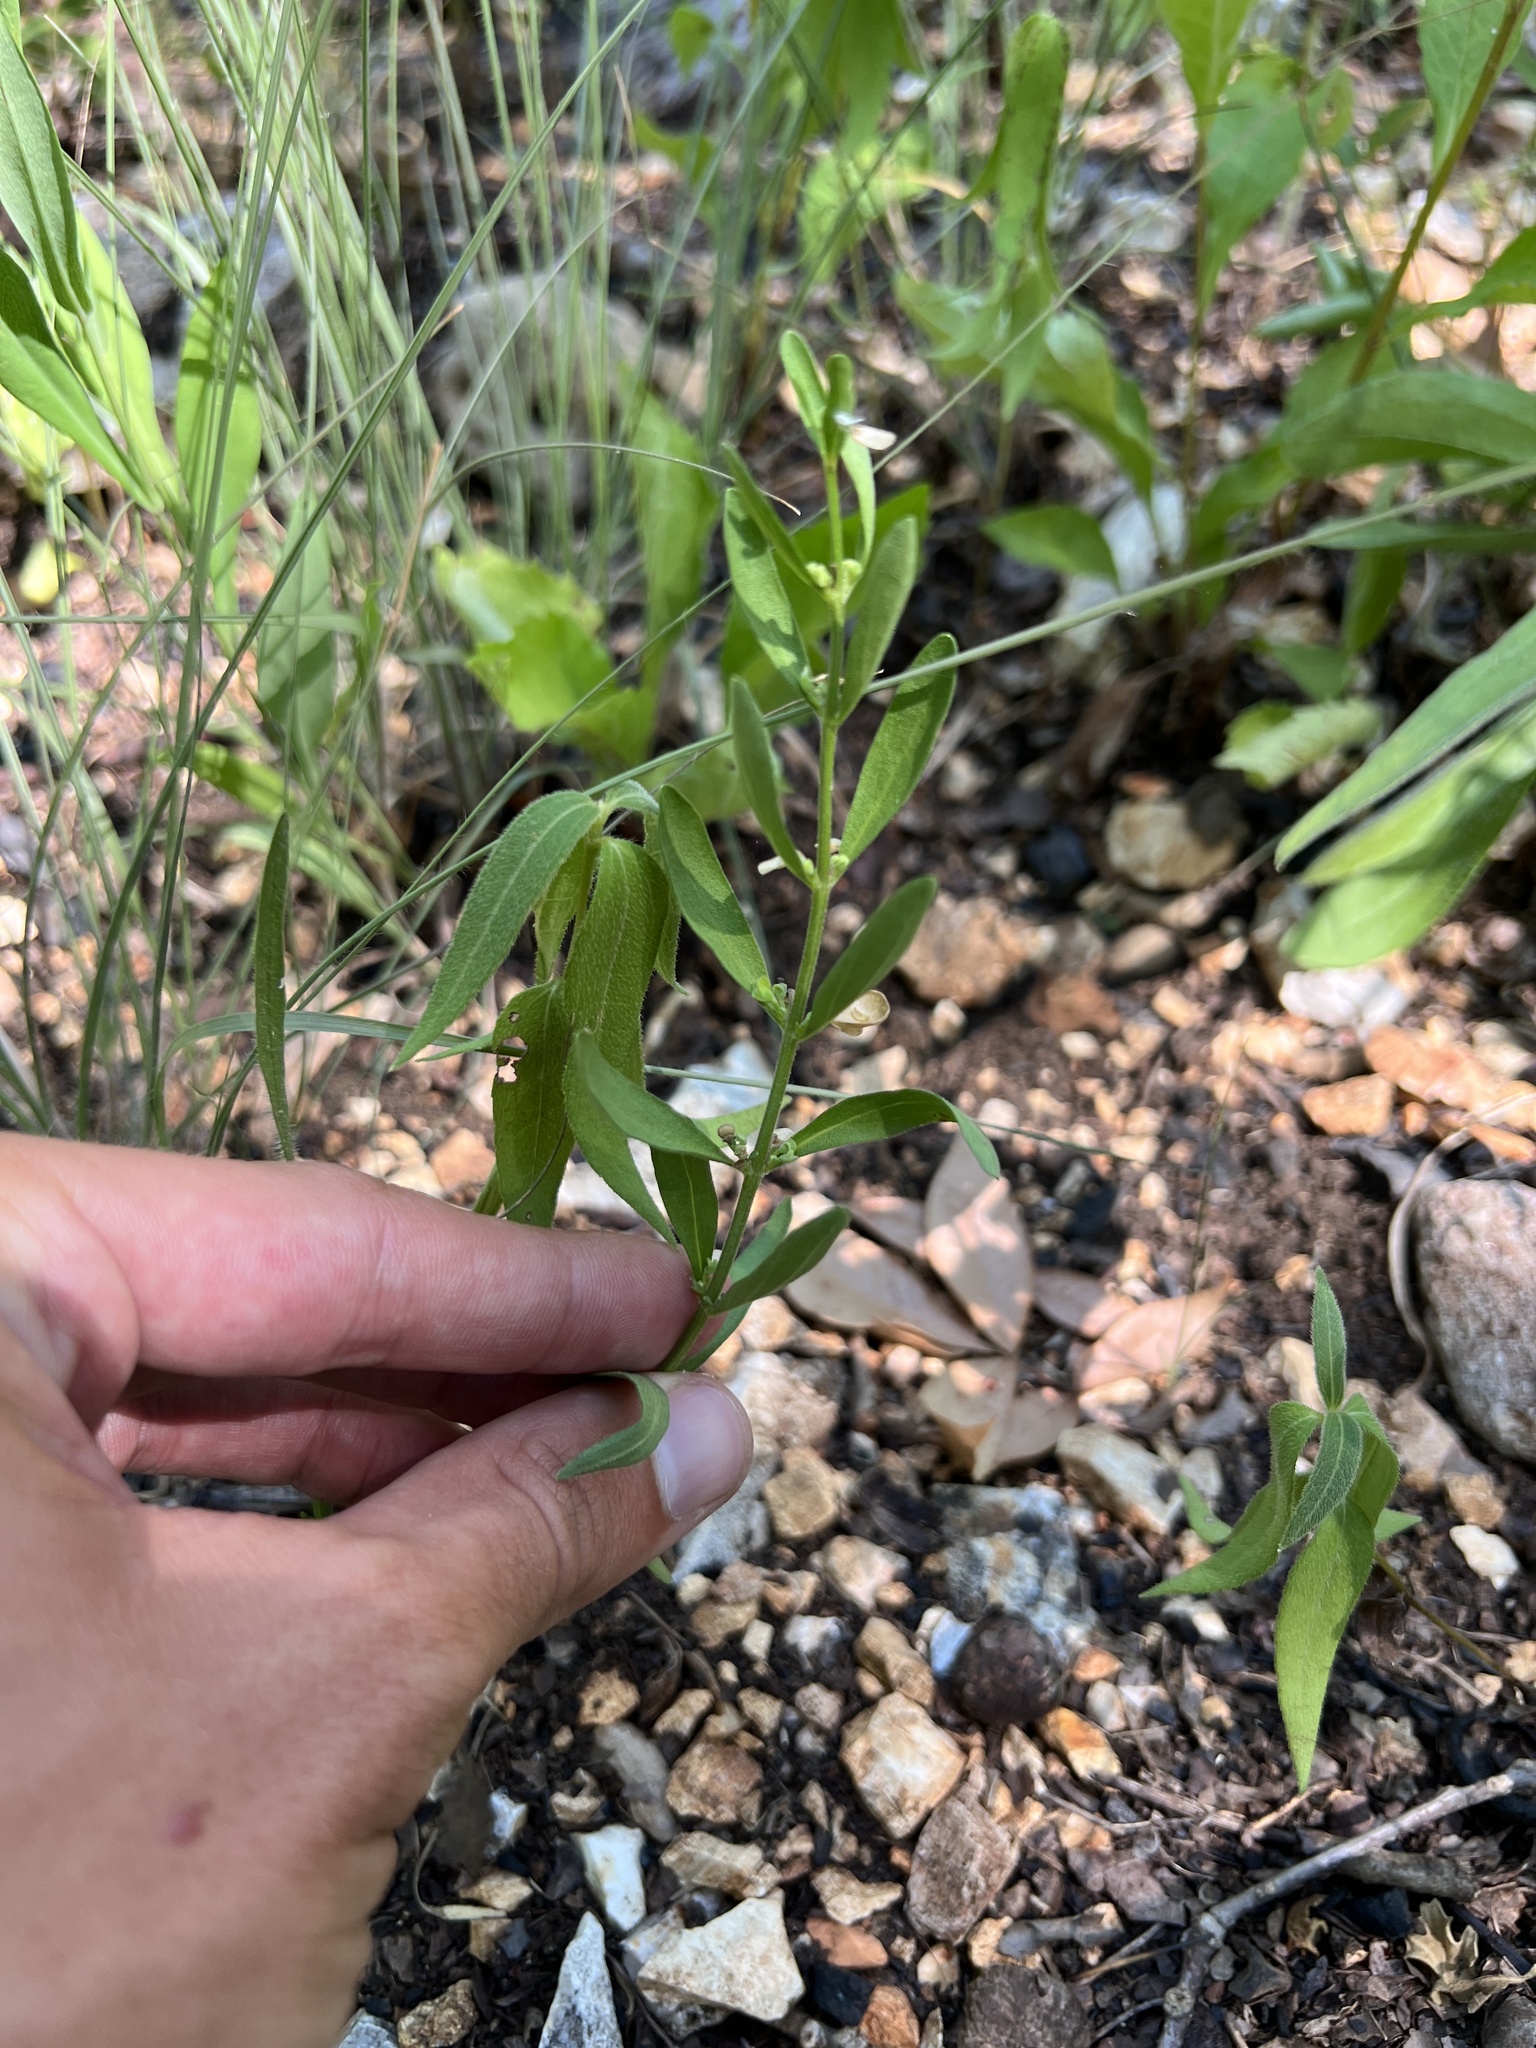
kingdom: Plantae
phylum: Tracheophyta
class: Magnoliopsida
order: Lamiales
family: Lamiaceae
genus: Scutellaria
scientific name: Scutellaria bushii
